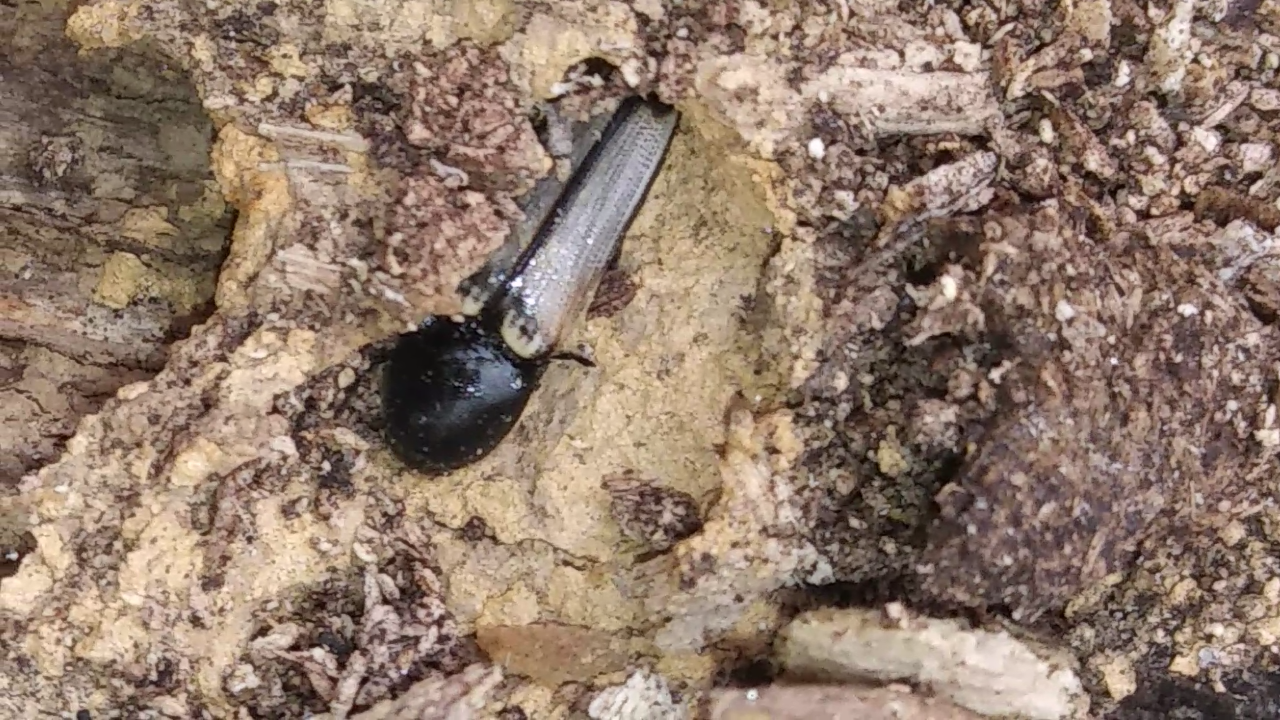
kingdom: Animalia
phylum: Arthropoda
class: Insecta
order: Coleoptera
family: Elateridae
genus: Ampedus
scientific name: Ampedus linteus
